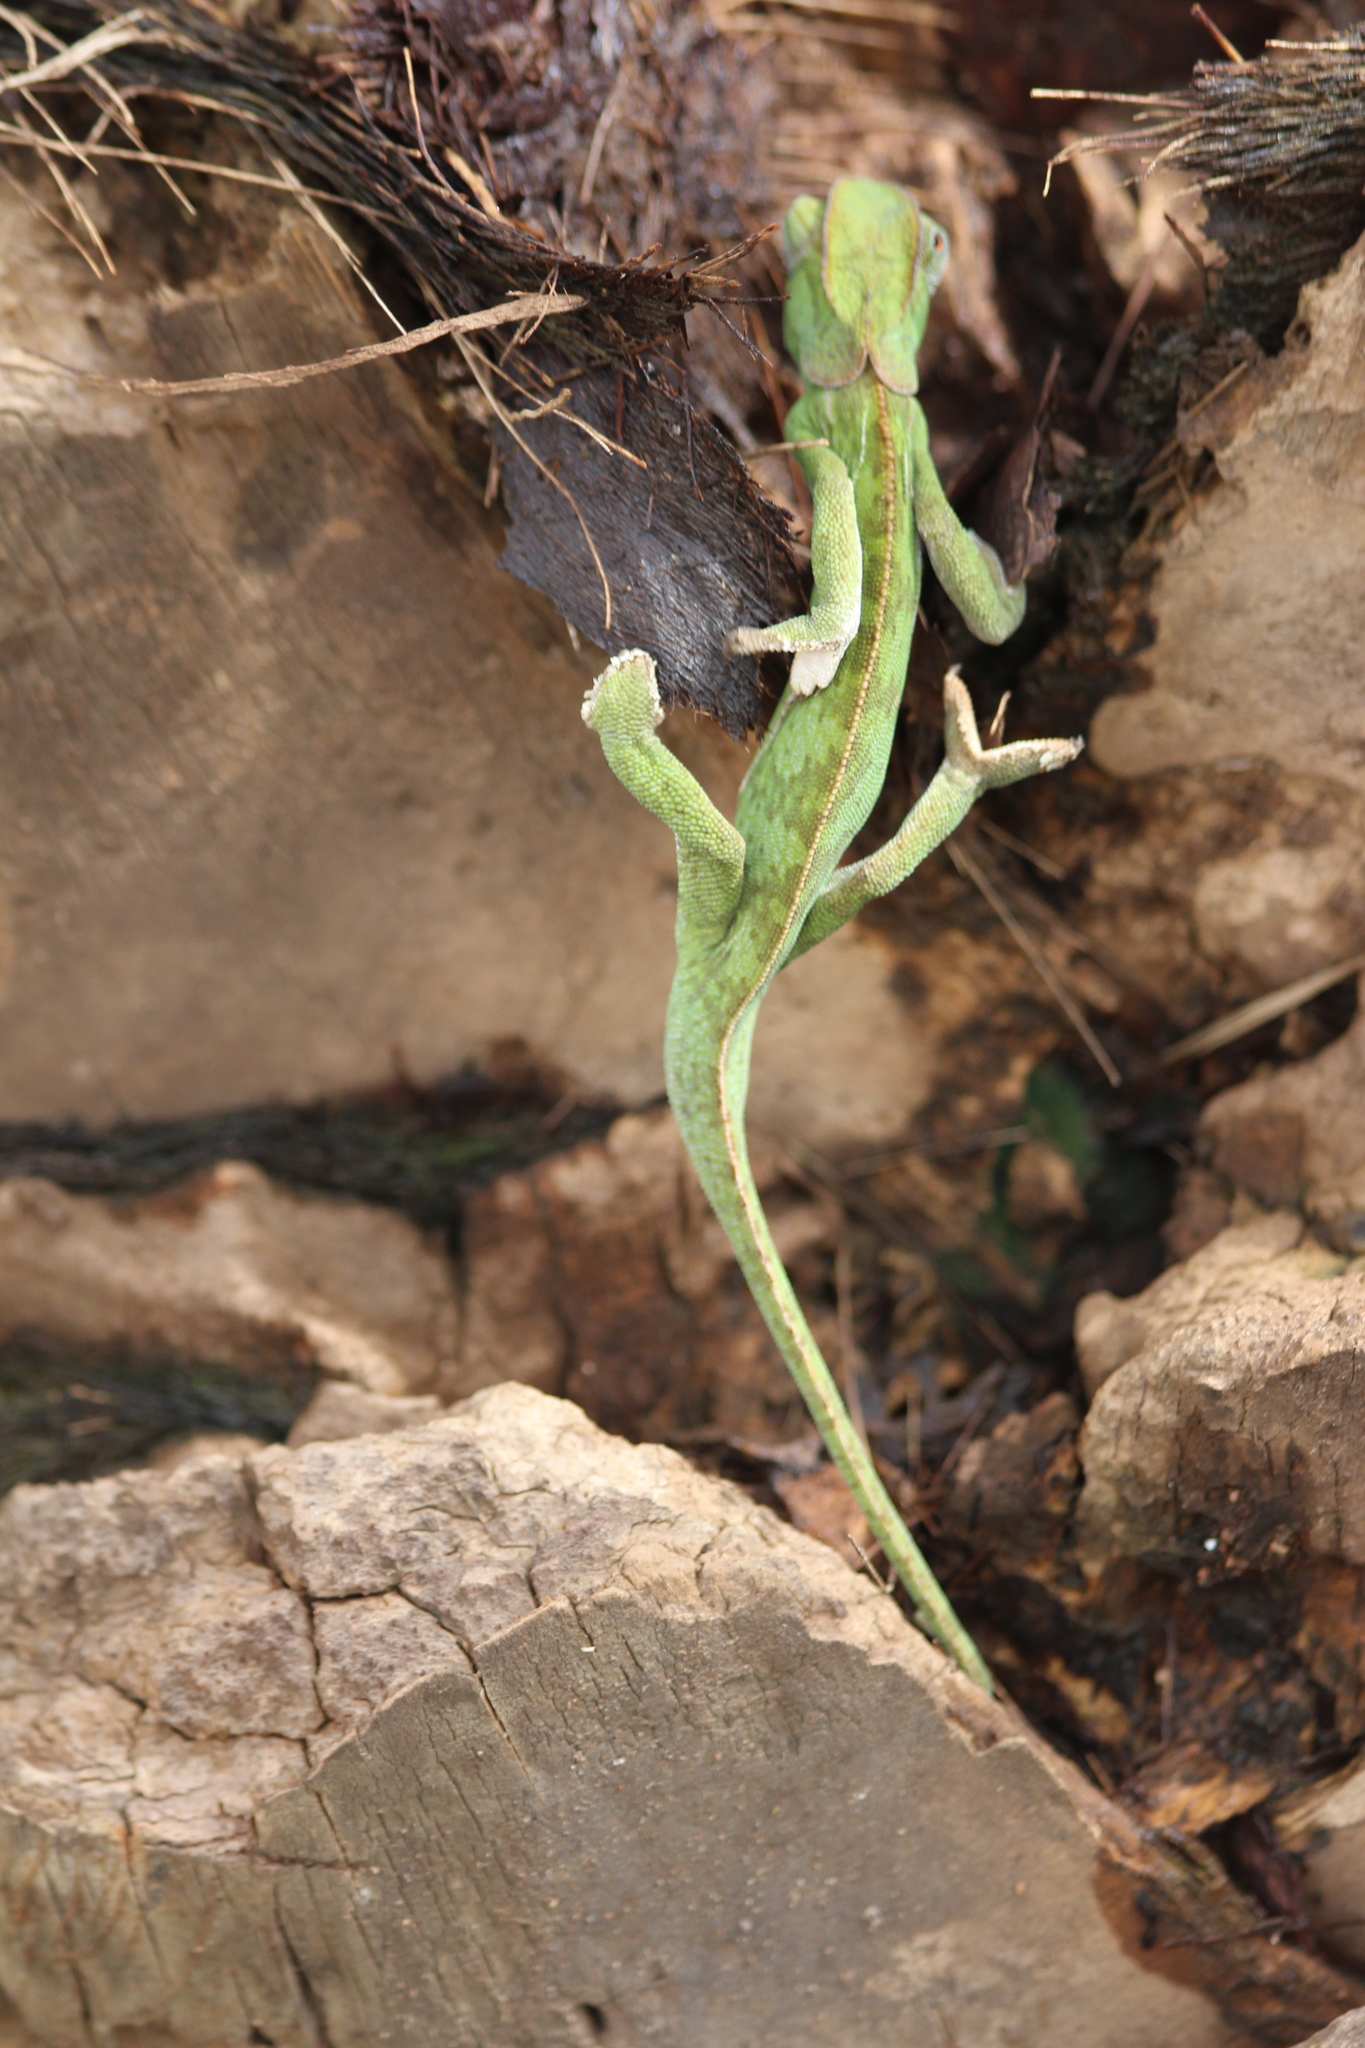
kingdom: Animalia
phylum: Chordata
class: Squamata
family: Chamaeleonidae
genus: Chamaeleo
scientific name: Chamaeleo dilepis
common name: Flapneck chameleon
